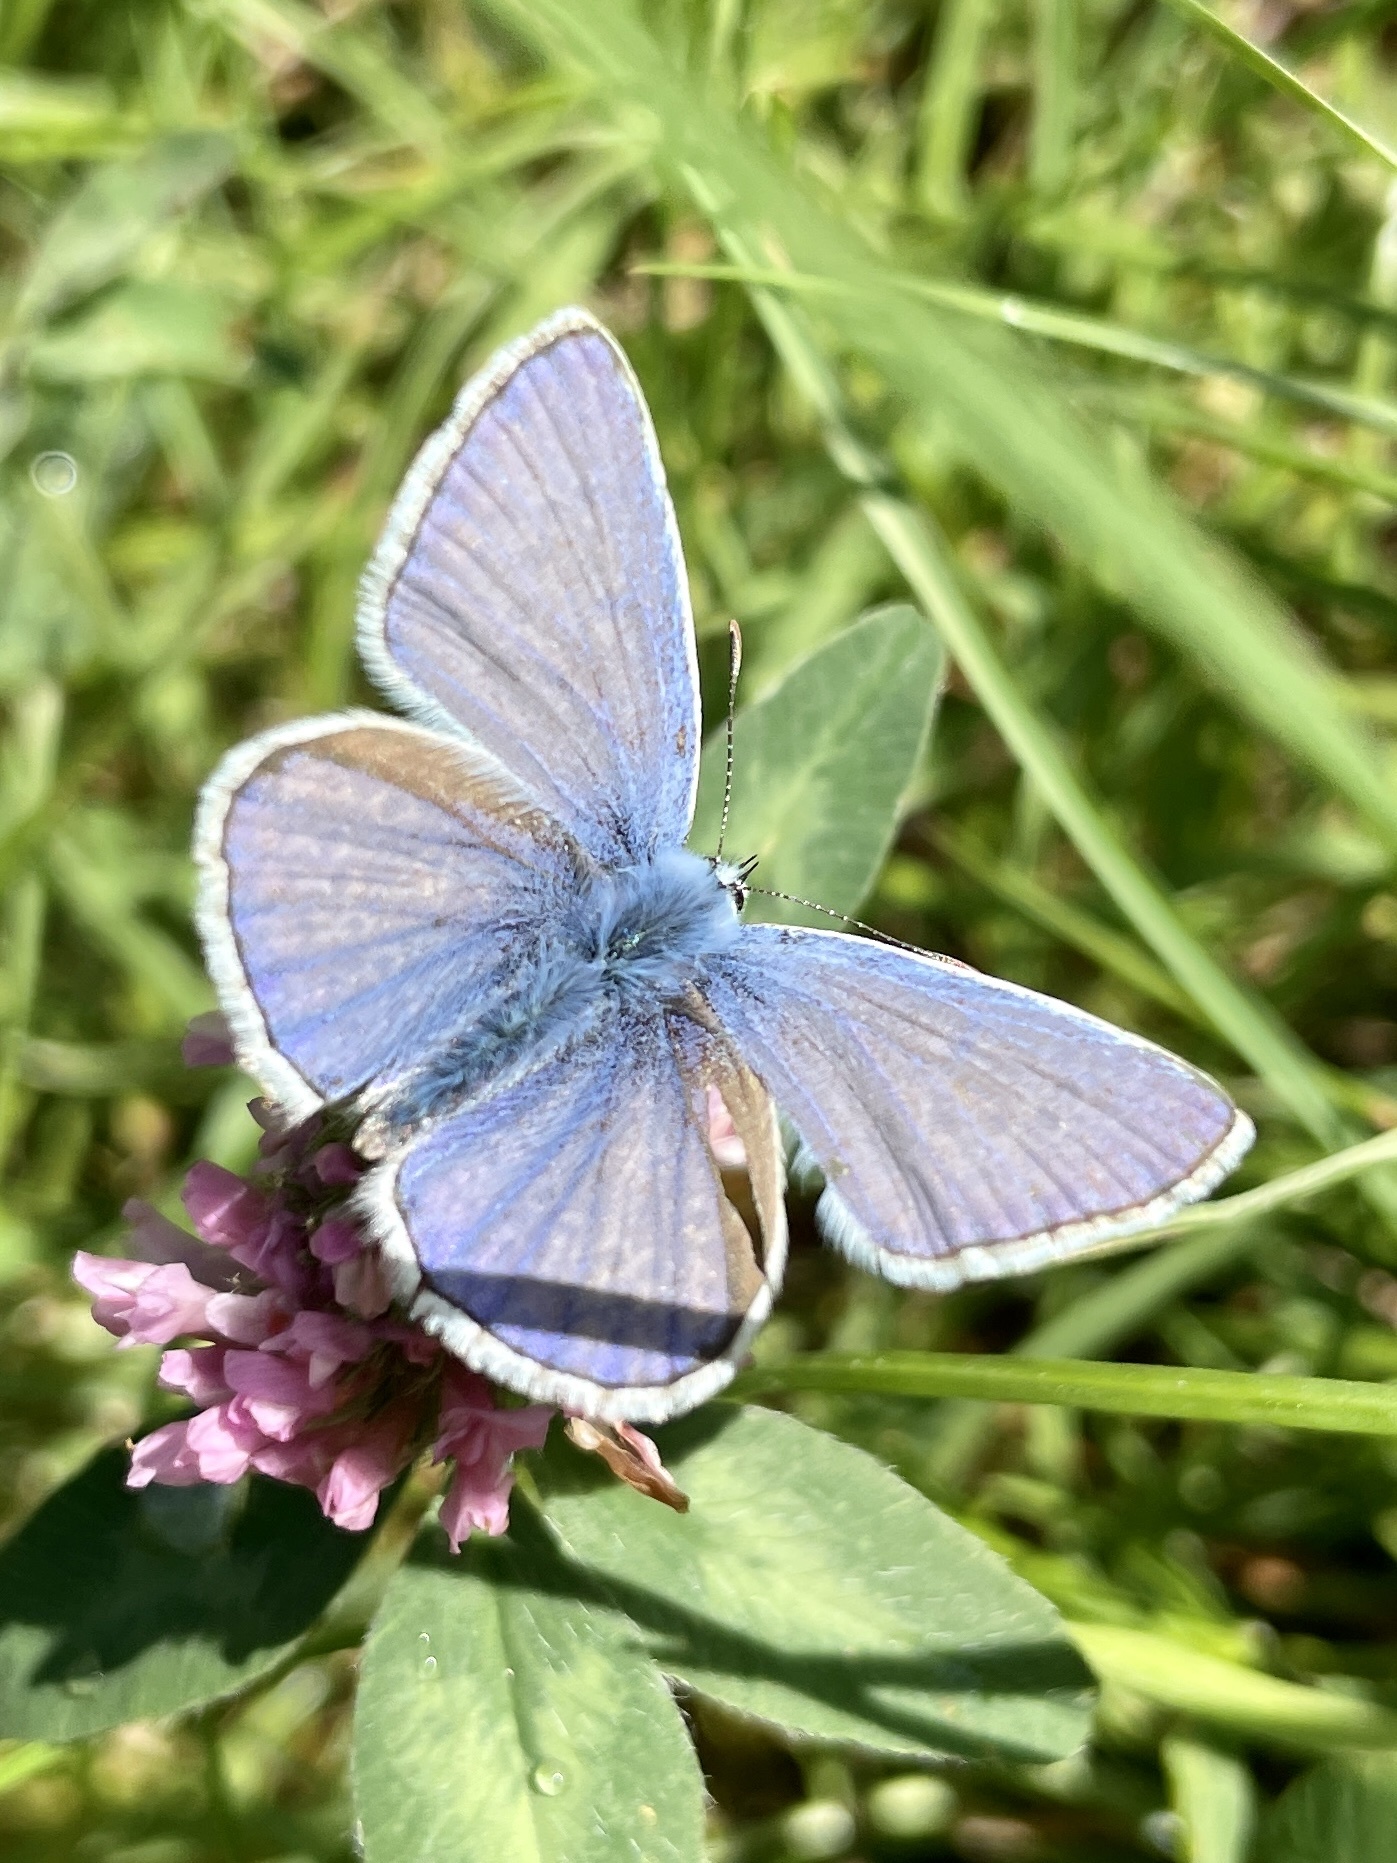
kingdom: Animalia
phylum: Arthropoda
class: Insecta
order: Lepidoptera
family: Lycaenidae
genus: Polyommatus
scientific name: Polyommatus icarus
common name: Common blue
